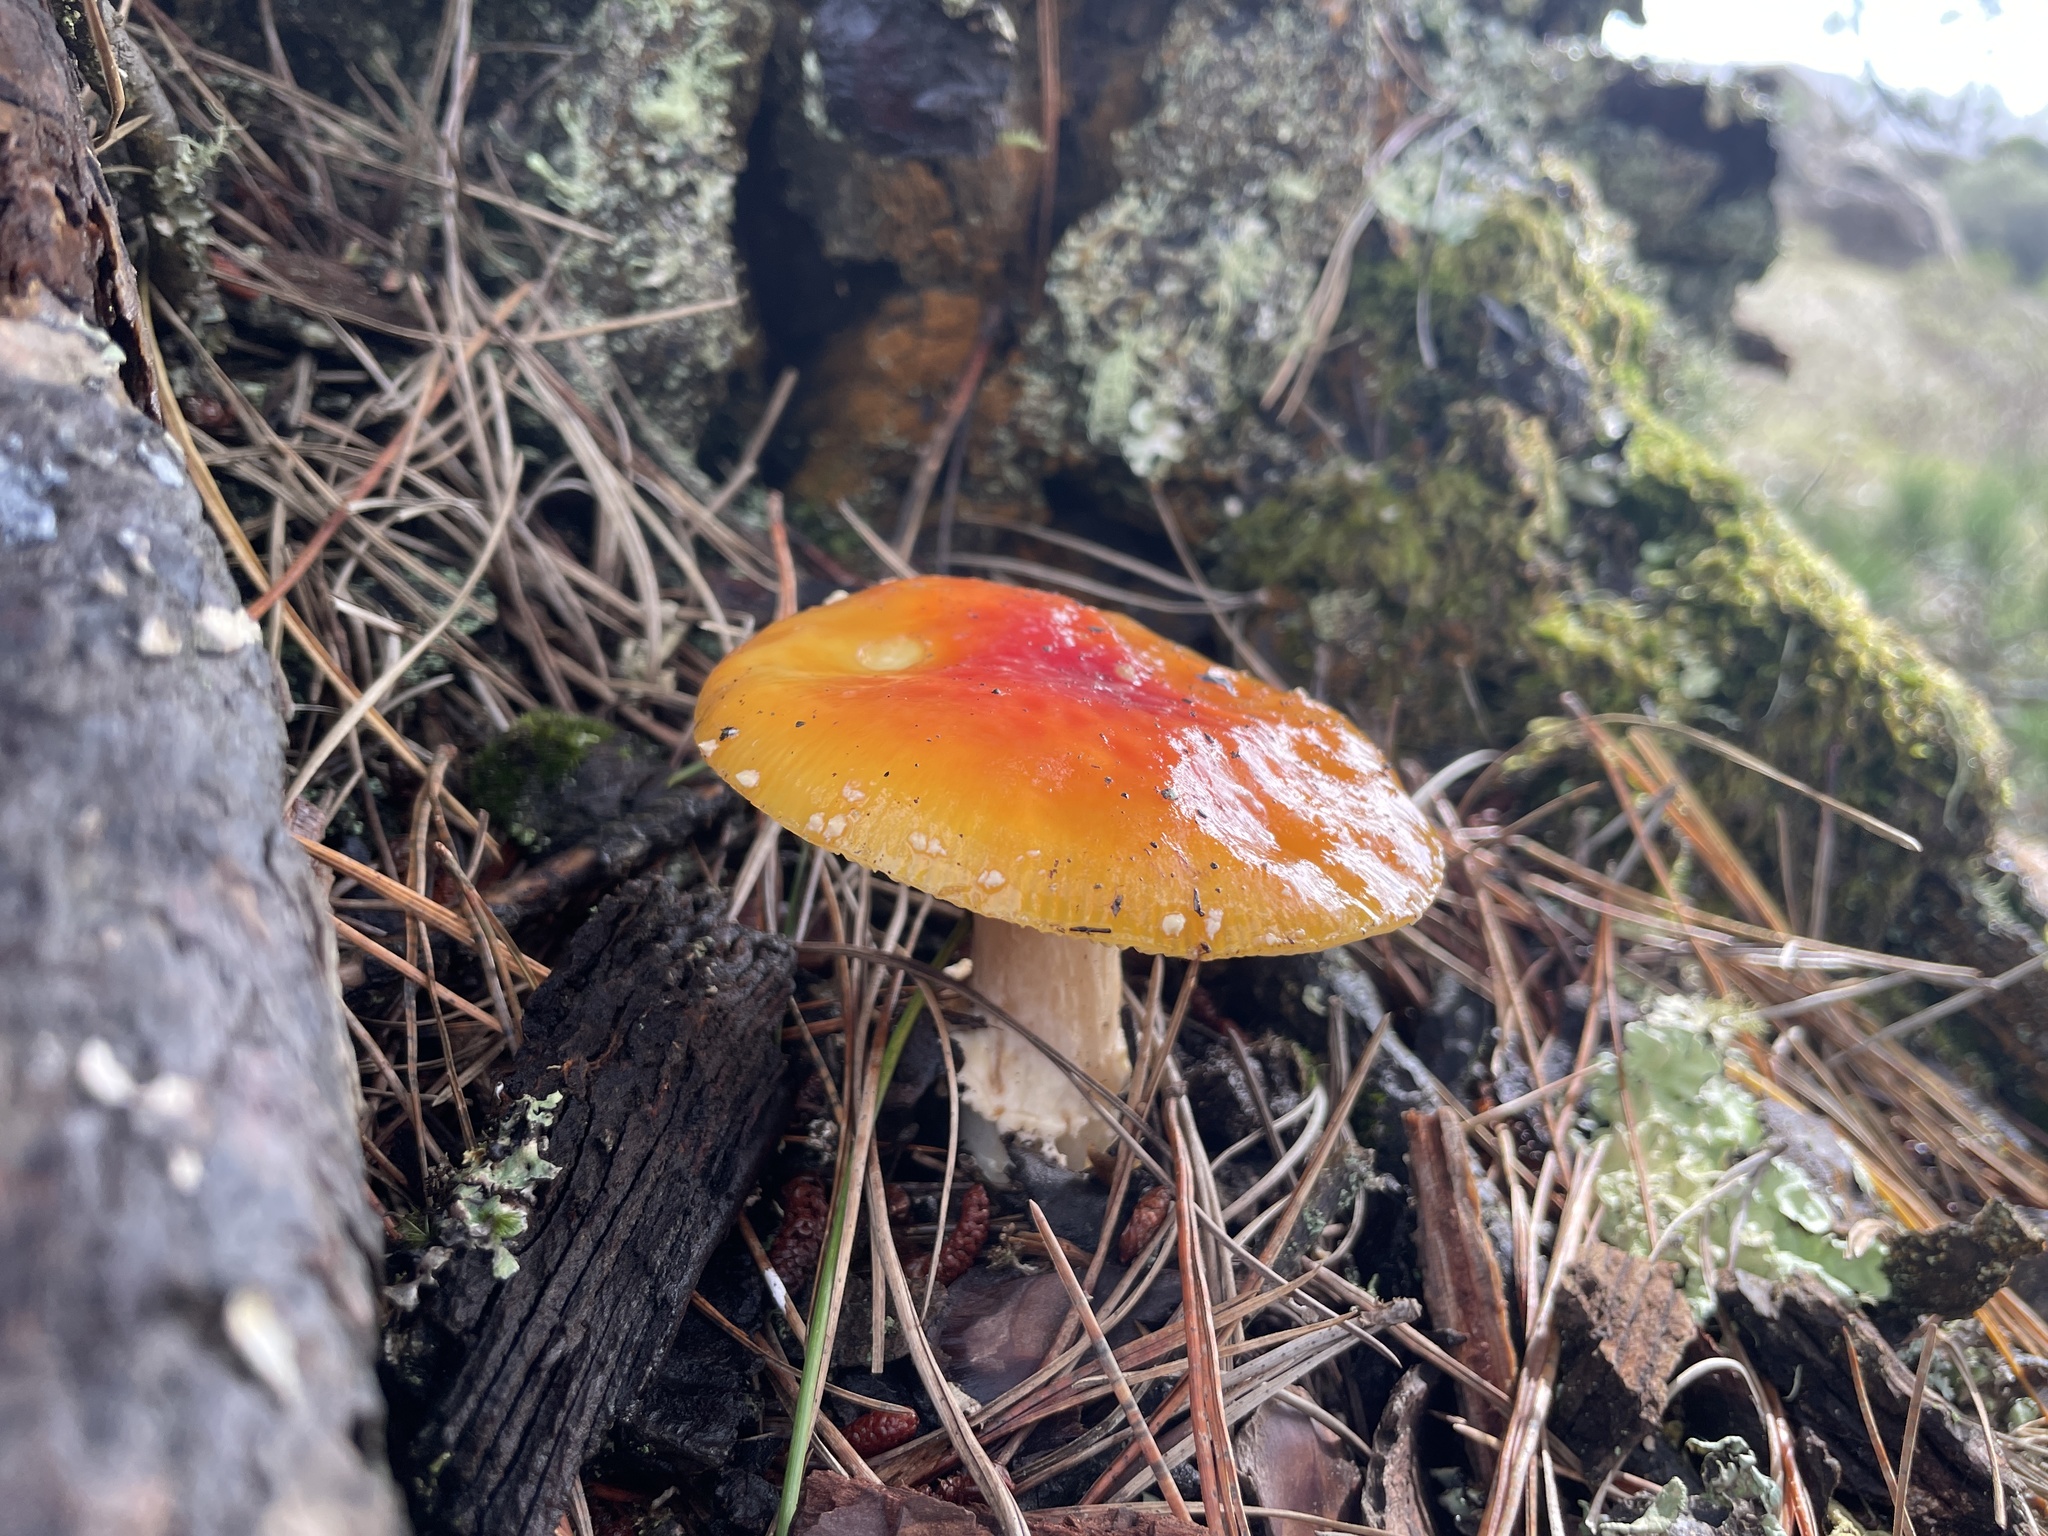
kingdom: Fungi
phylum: Basidiomycota
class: Agaricomycetes
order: Agaricales
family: Amanitaceae
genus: Amanita
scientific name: Amanita muscaria
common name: Fly agaric
